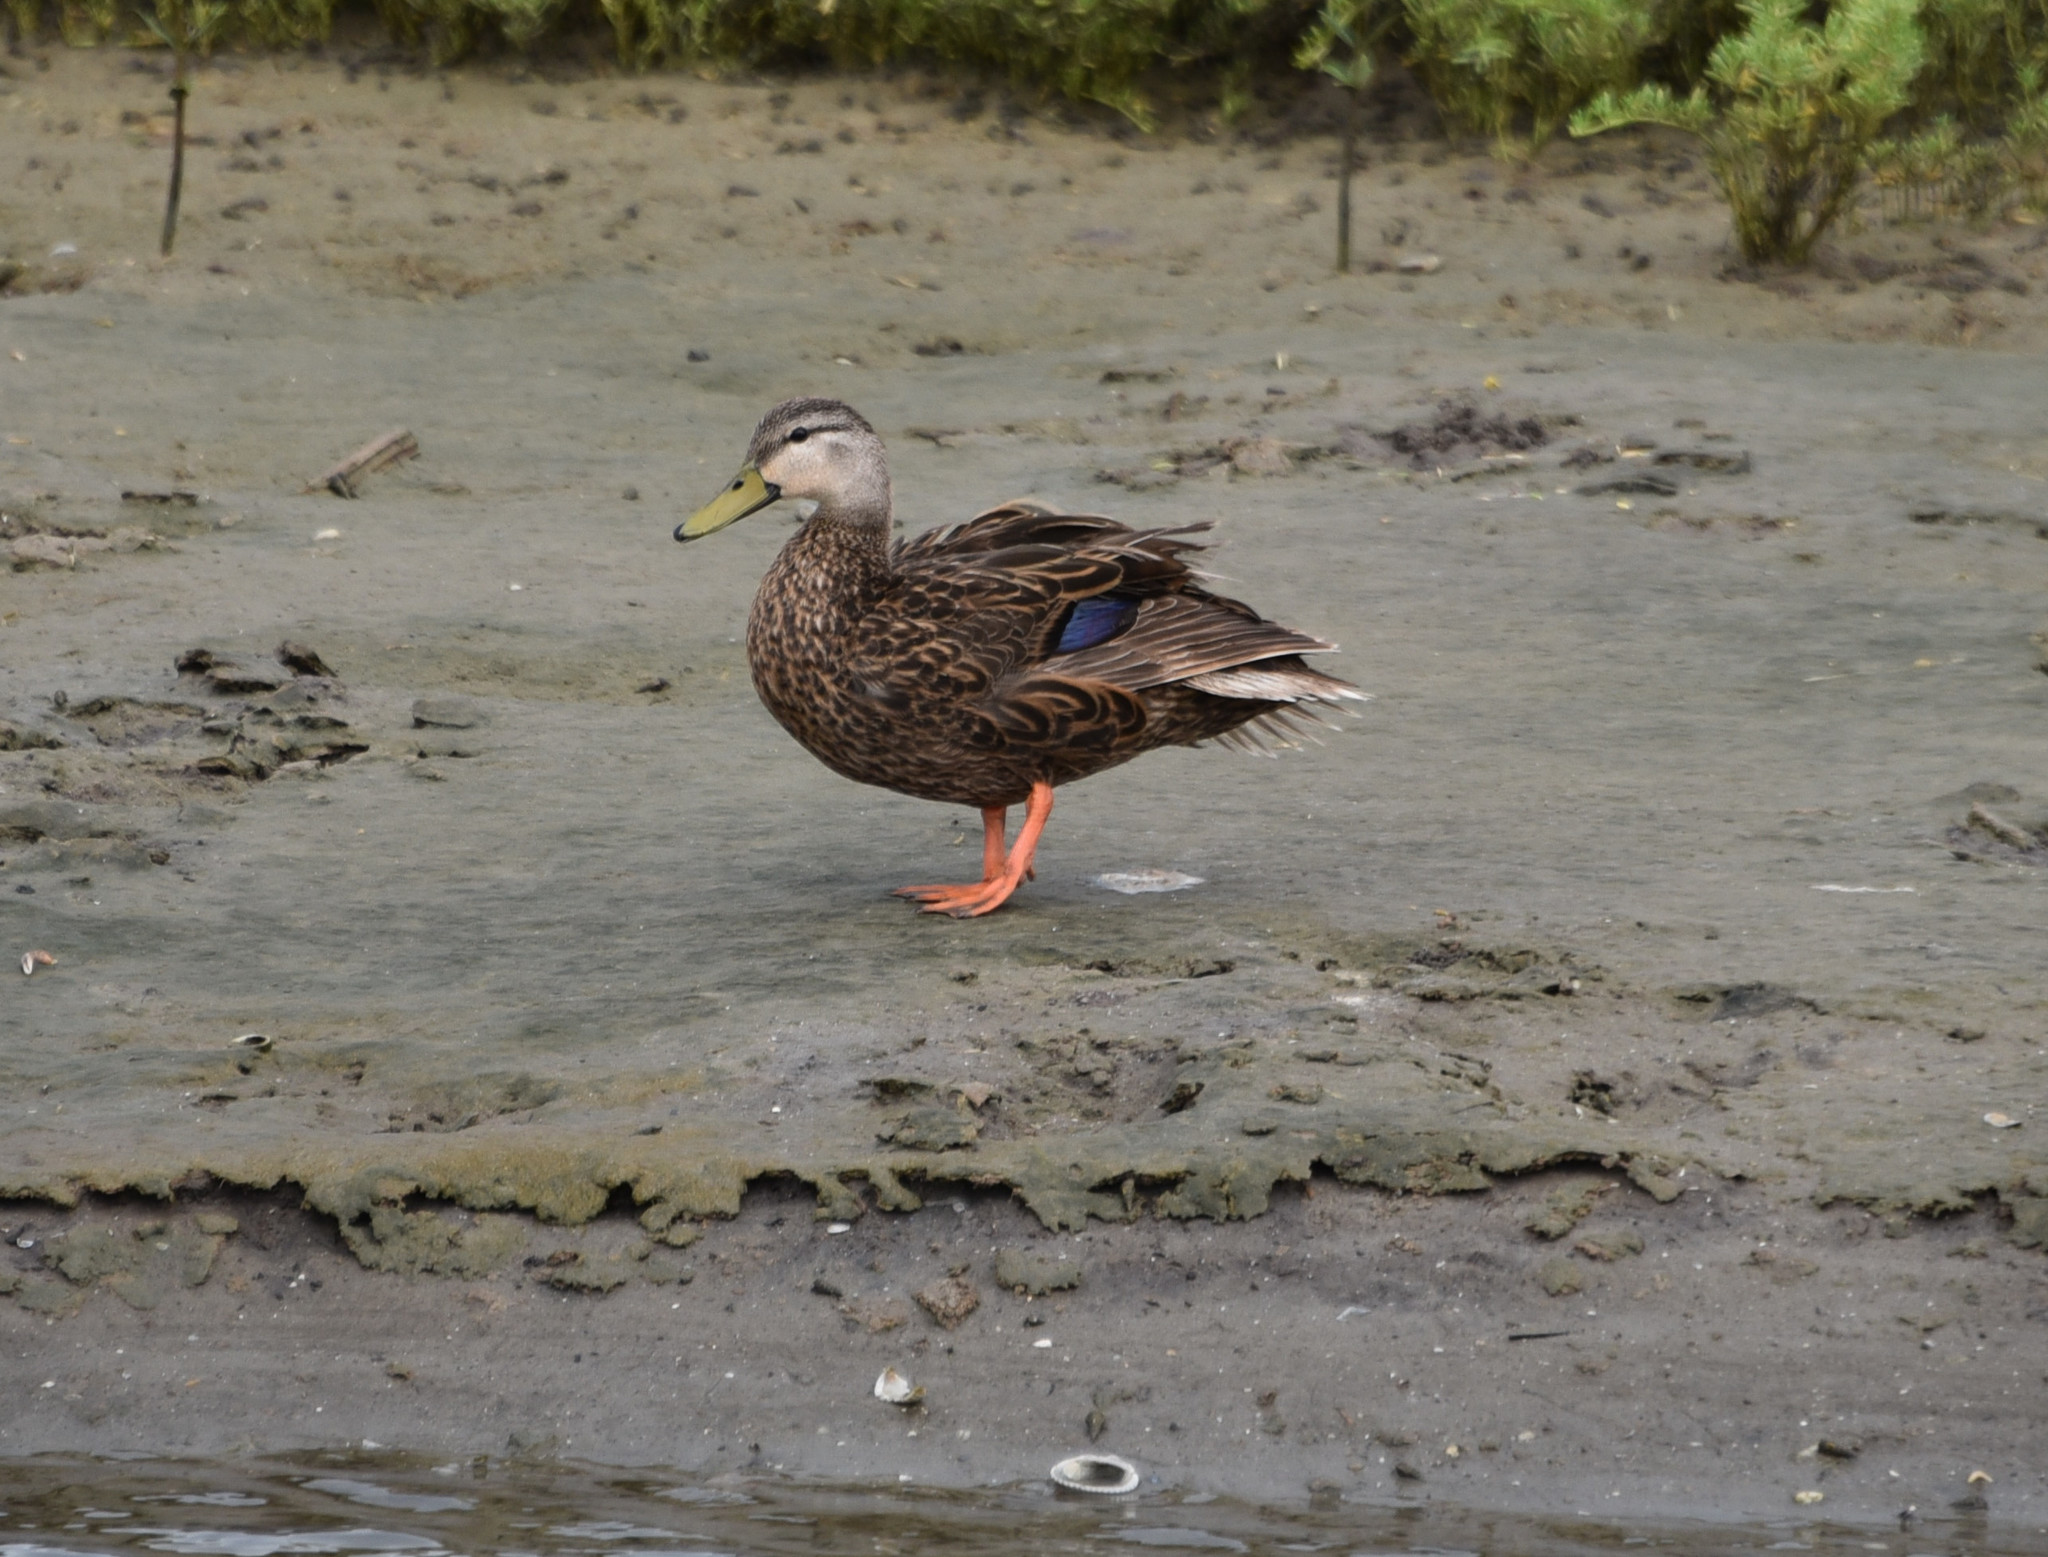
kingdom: Animalia
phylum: Chordata
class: Aves
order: Anseriformes
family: Anatidae
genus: Anas
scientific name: Anas fulvigula
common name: Mottled duck
